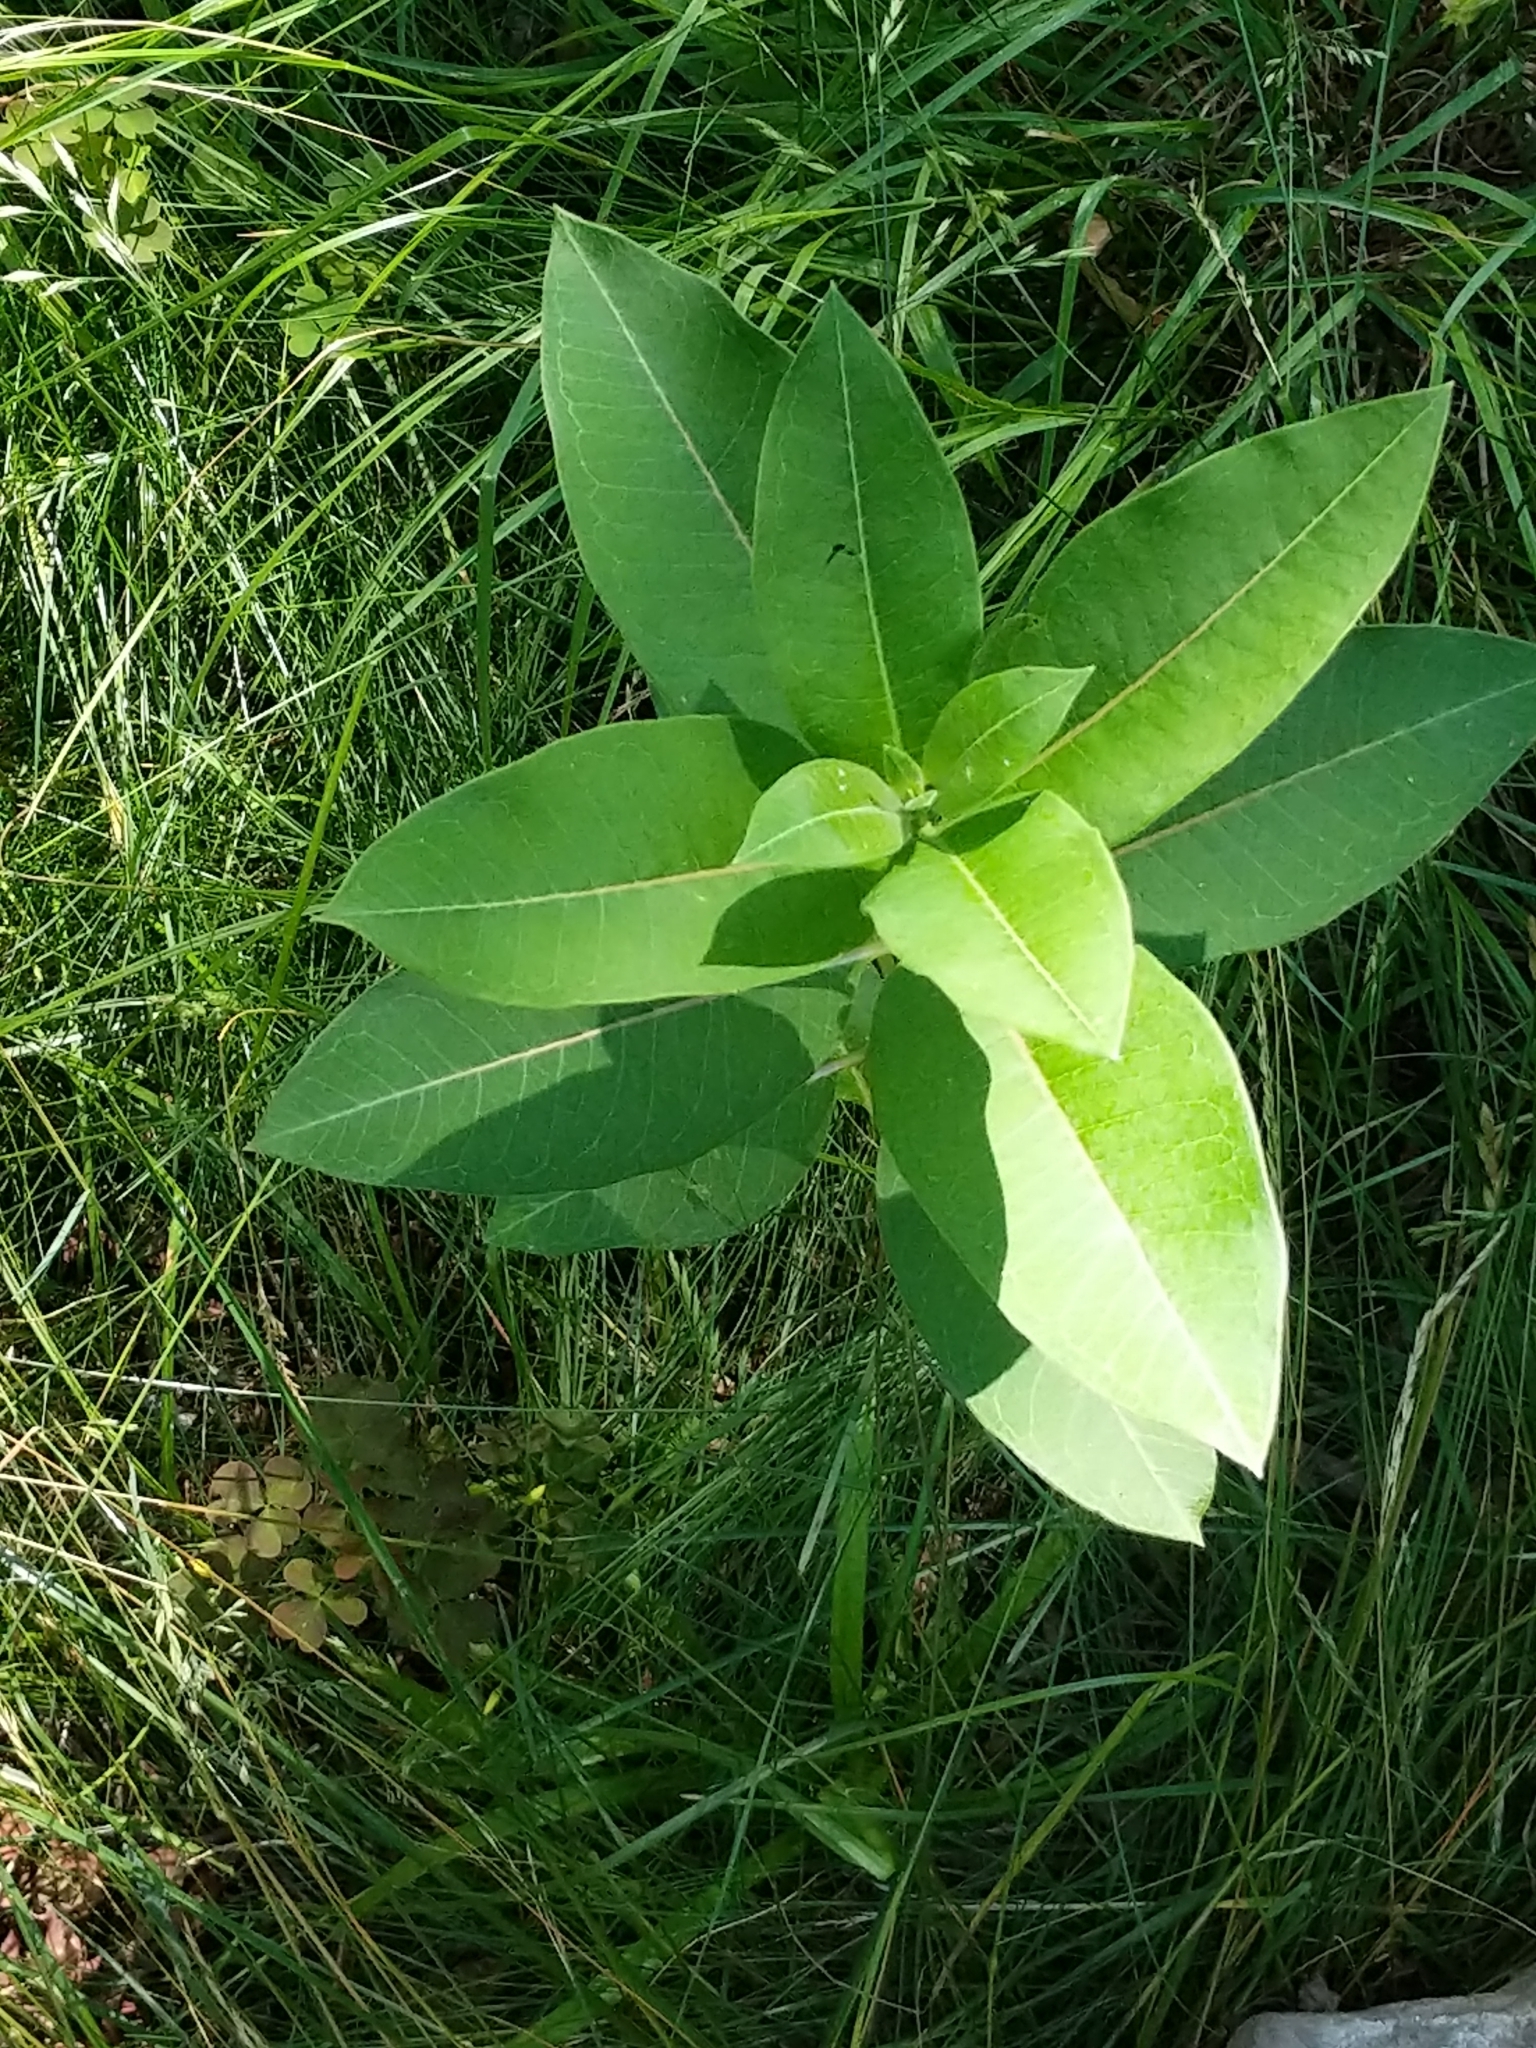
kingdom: Plantae
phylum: Tracheophyta
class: Magnoliopsida
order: Gentianales
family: Apocynaceae
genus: Asclepias
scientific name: Asclepias syriaca
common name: Common milkweed
